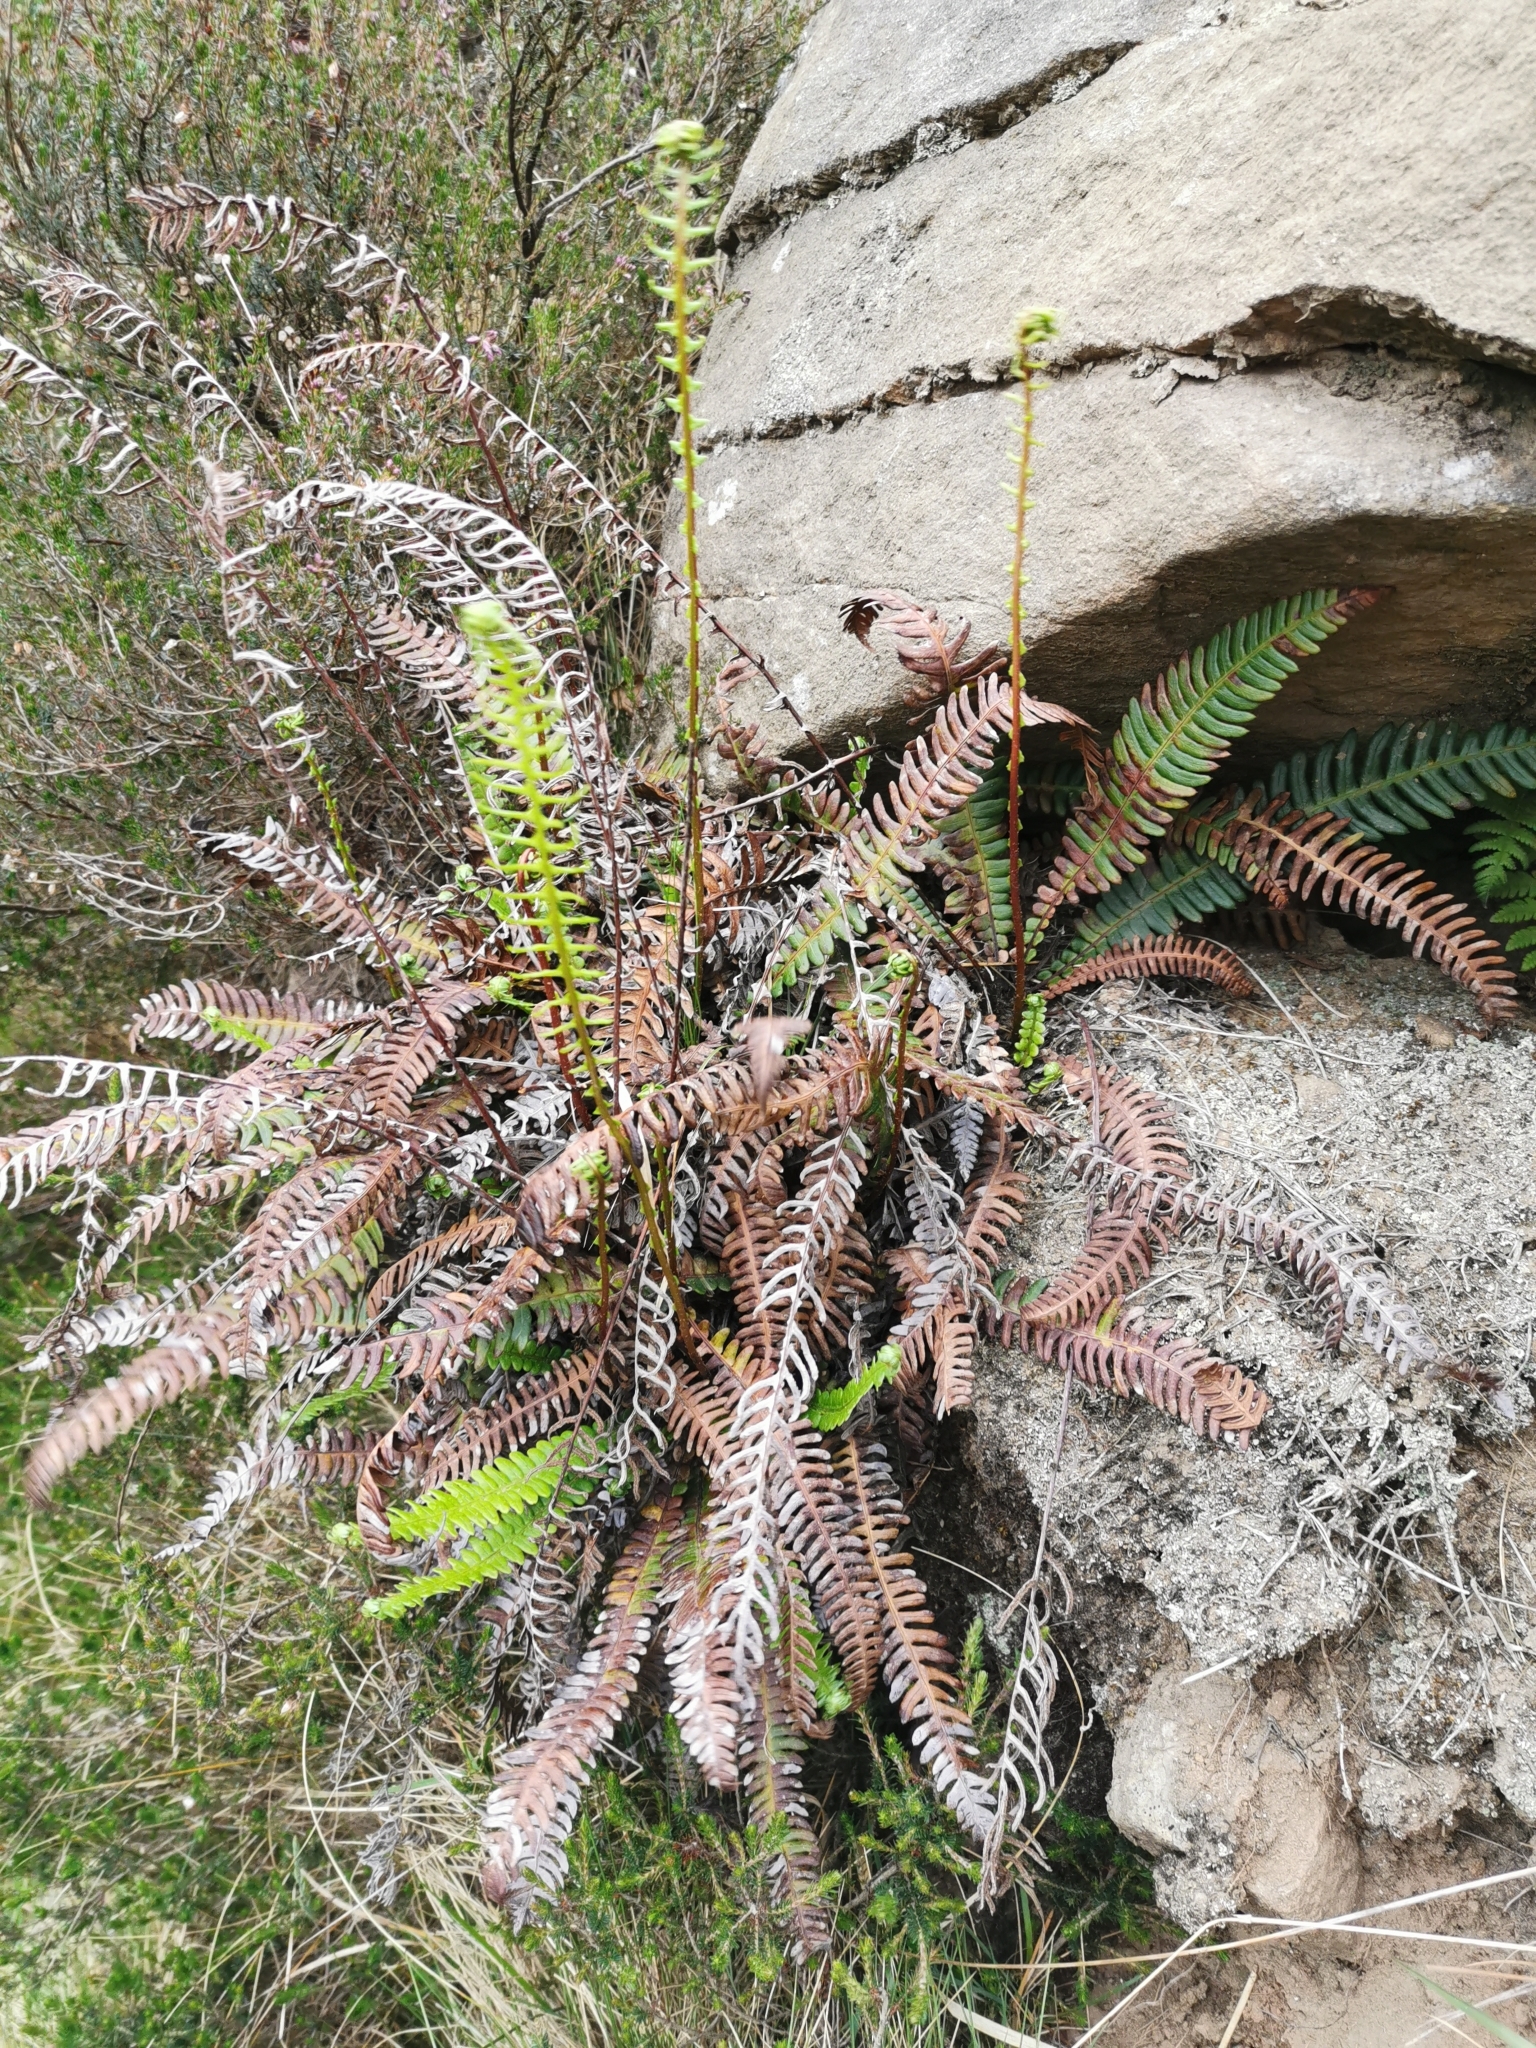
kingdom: Plantae
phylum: Tracheophyta
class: Polypodiopsida
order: Polypodiales
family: Blechnaceae
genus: Struthiopteris
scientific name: Struthiopteris spicant
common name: Deer fern
